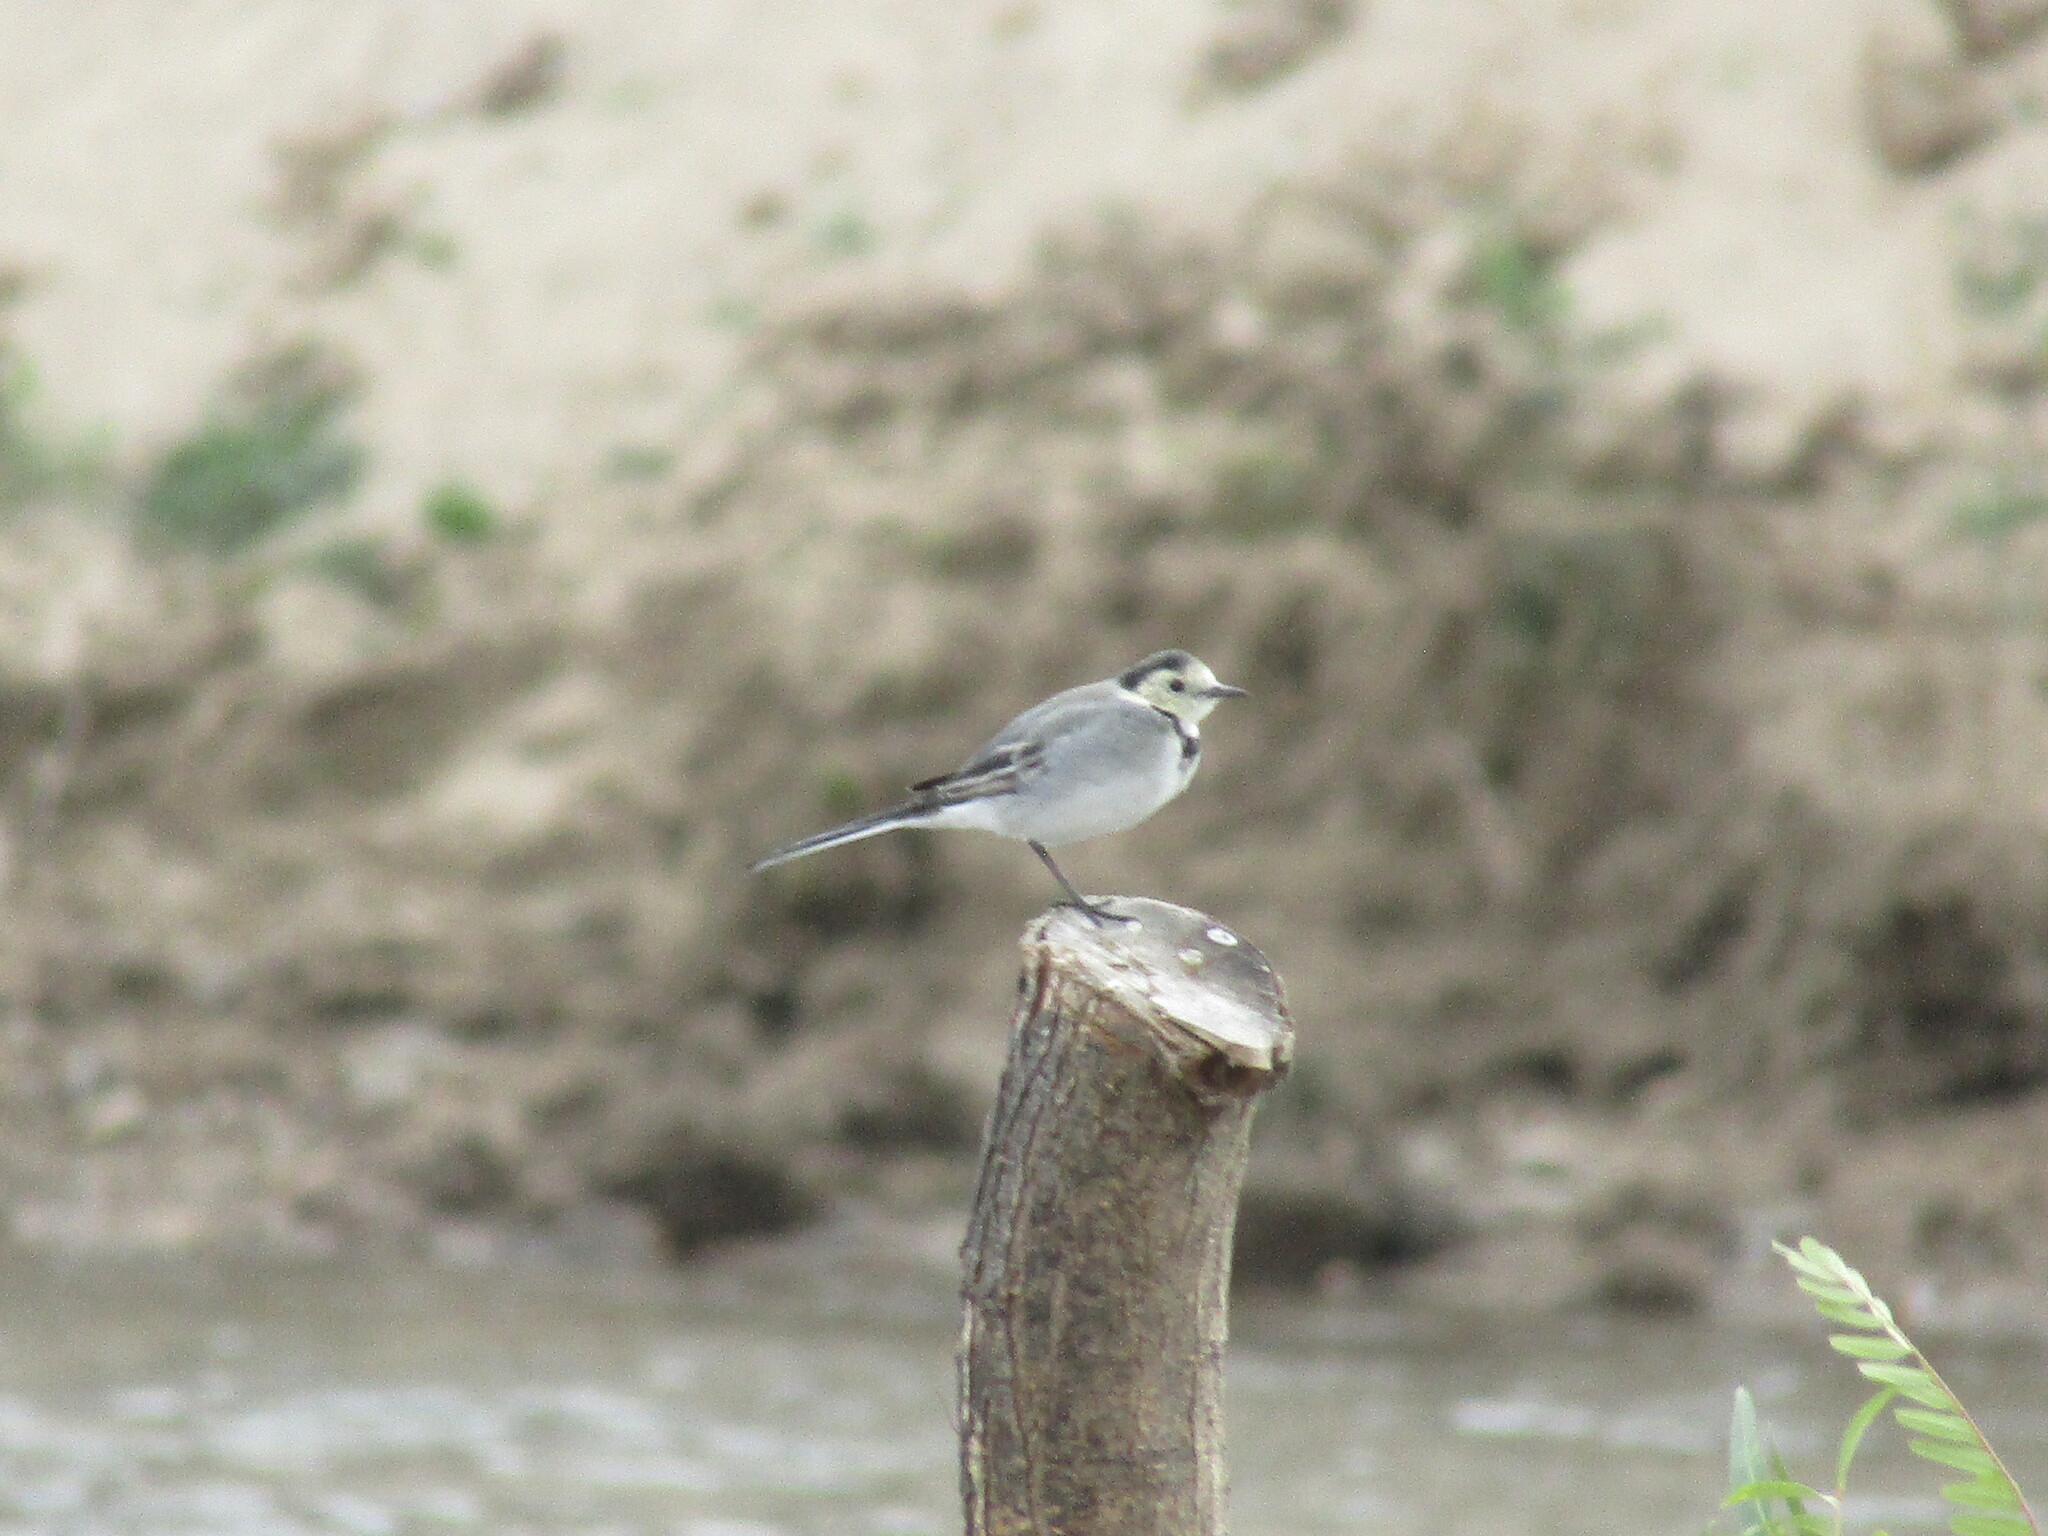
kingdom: Animalia
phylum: Chordata
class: Aves
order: Passeriformes
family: Motacillidae
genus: Motacilla
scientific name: Motacilla alba
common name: White wagtail
